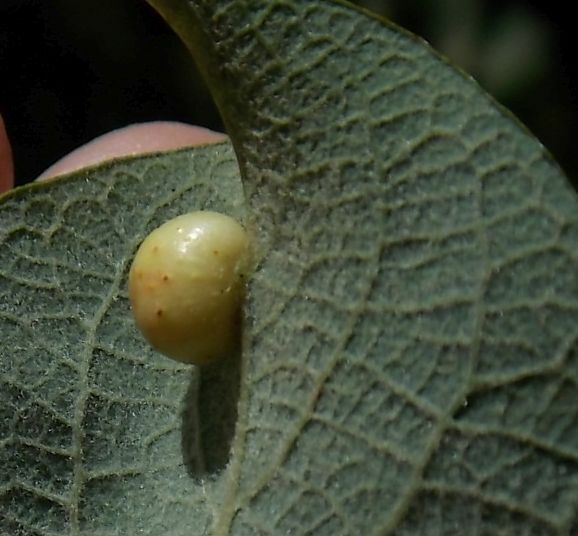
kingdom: Animalia
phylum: Arthropoda
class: Insecta
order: Hymenoptera
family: Tenthredinidae
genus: Pontania
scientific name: Pontania pedunculi
